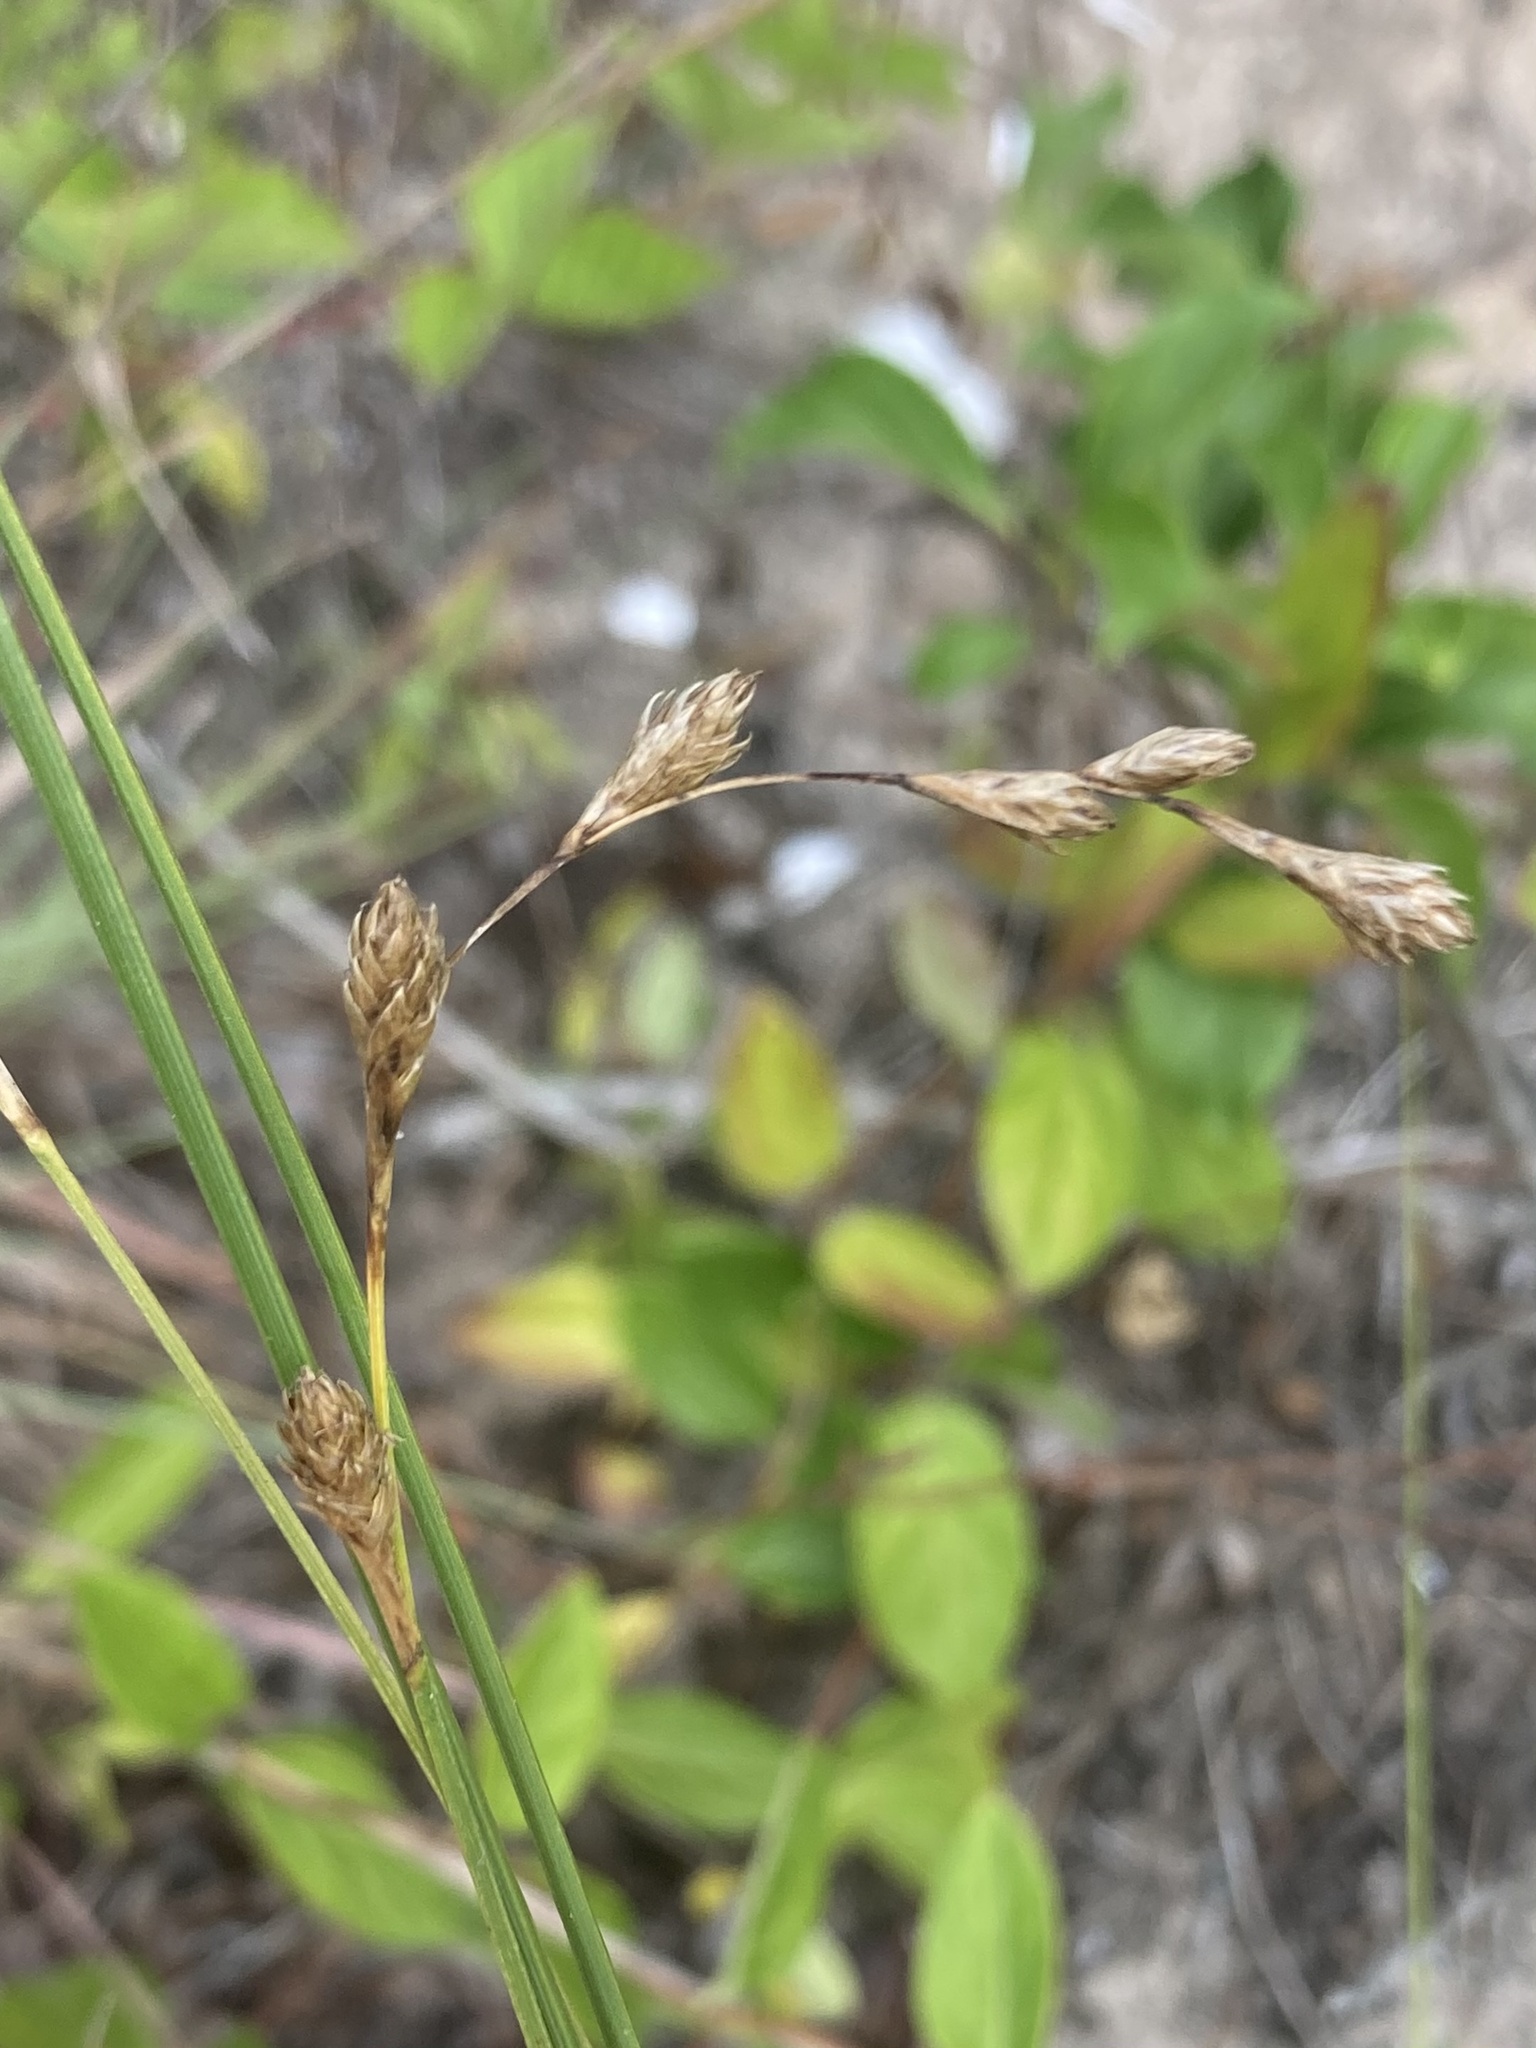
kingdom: Plantae
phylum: Tracheophyta
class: Liliopsida
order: Poales
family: Cyperaceae
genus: Carex
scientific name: Carex silicea
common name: Beach sedge
